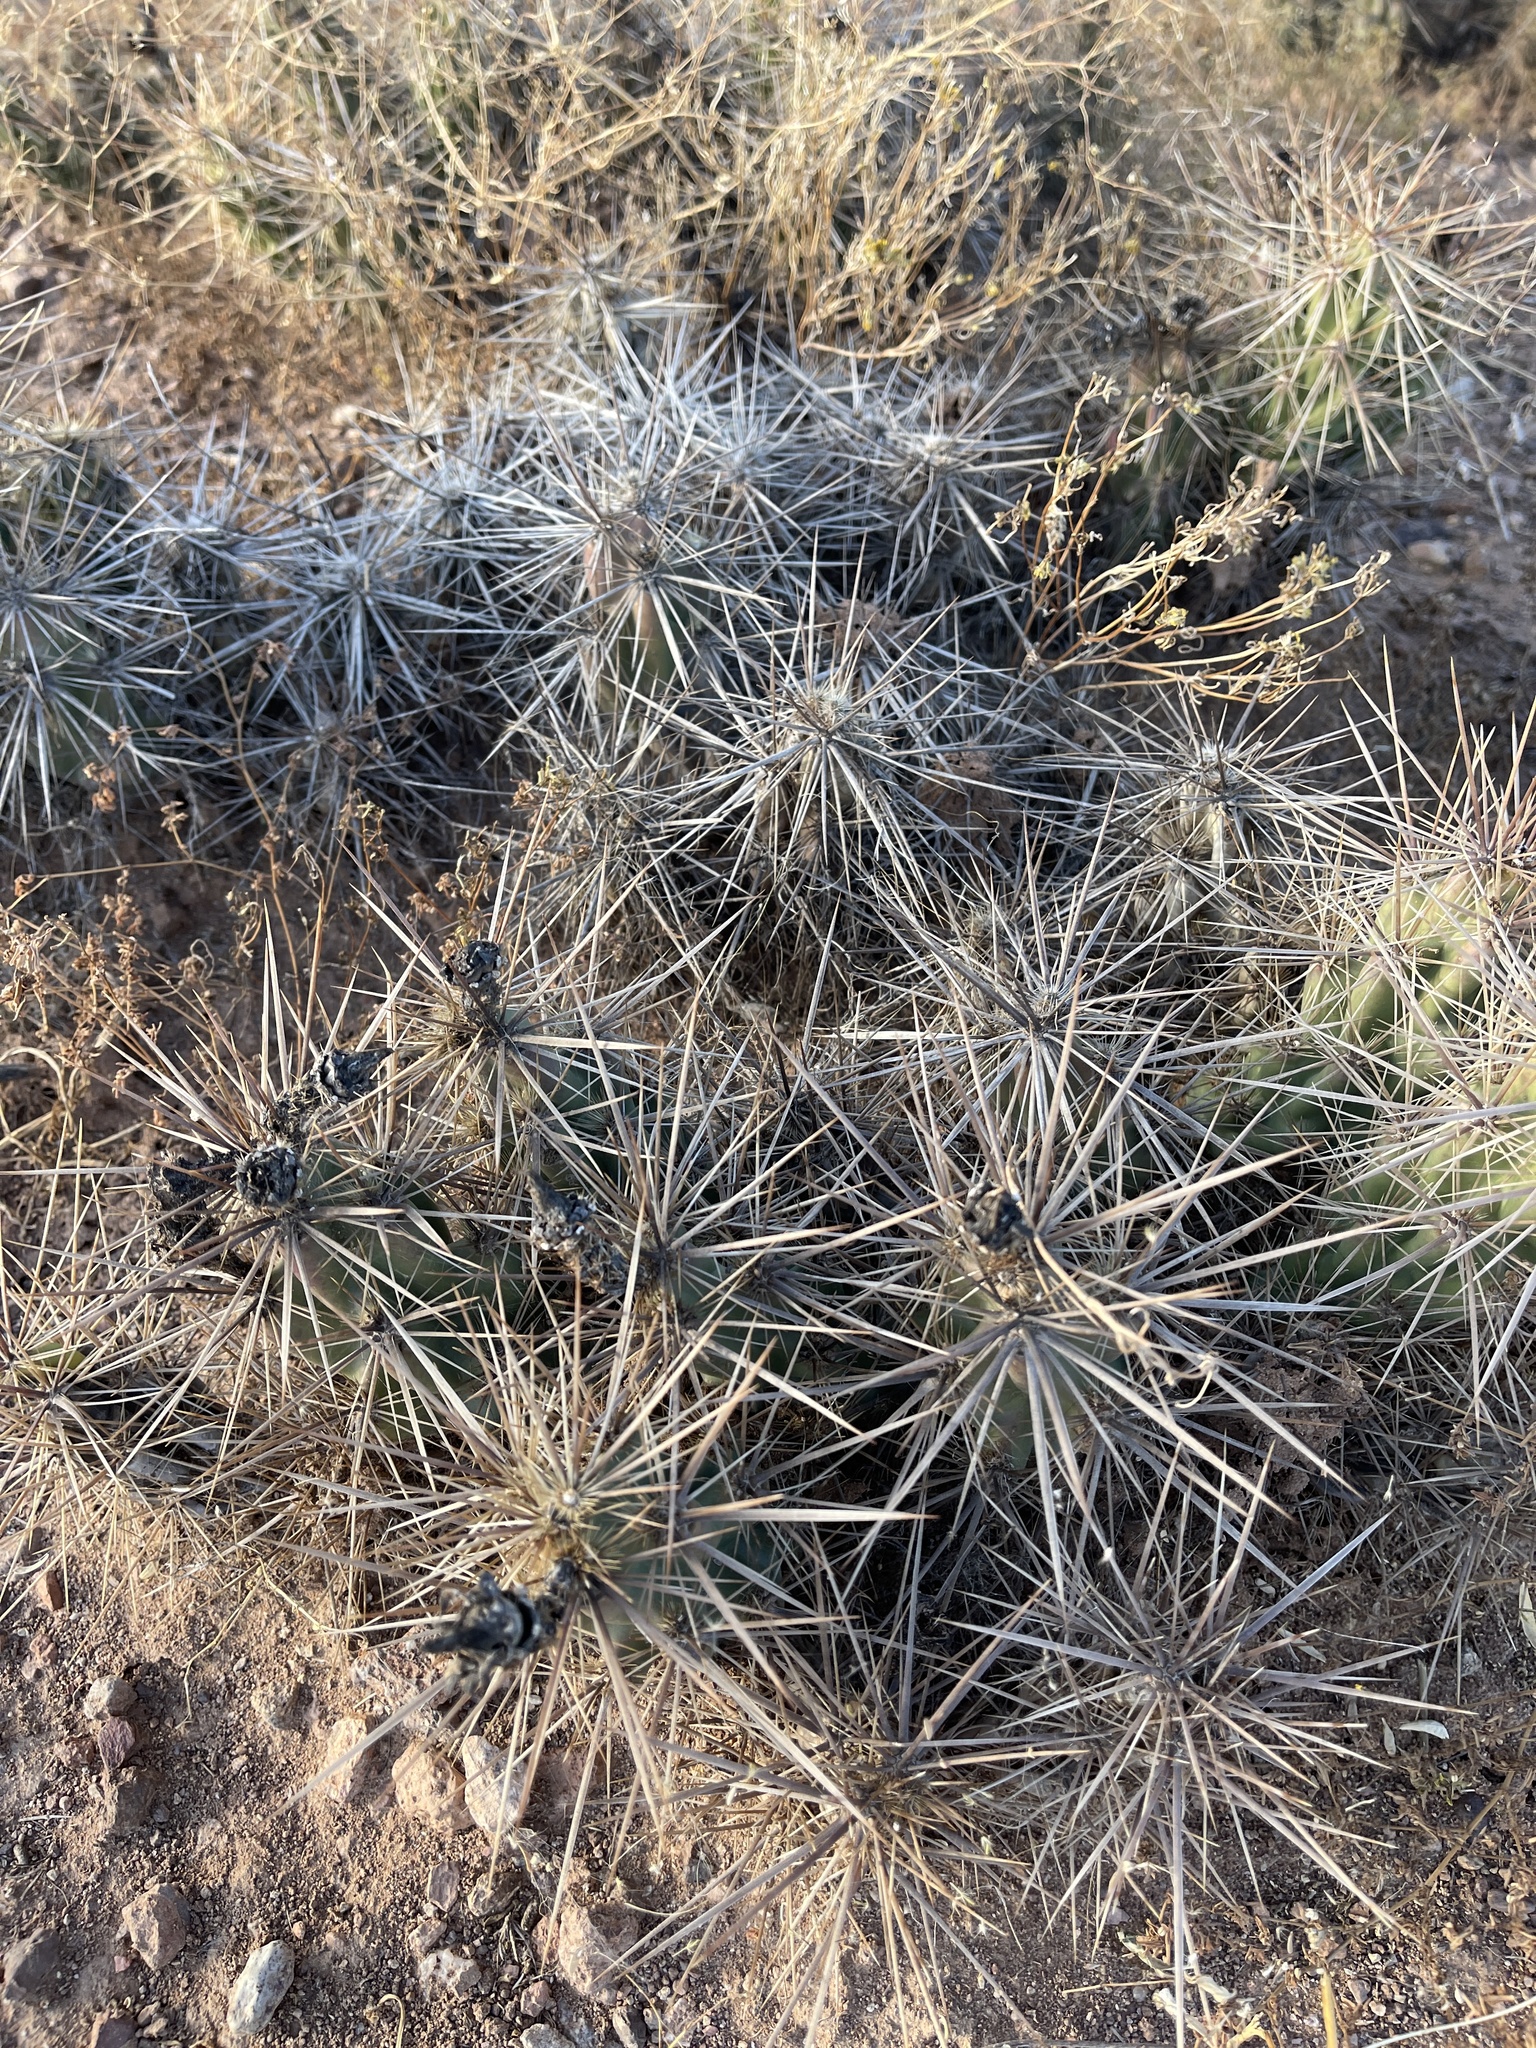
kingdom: Plantae
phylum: Tracheophyta
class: Magnoliopsida
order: Caryophyllales
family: Cactaceae
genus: Grusonia
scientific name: Grusonia emoryi
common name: Stanly's club cholla
